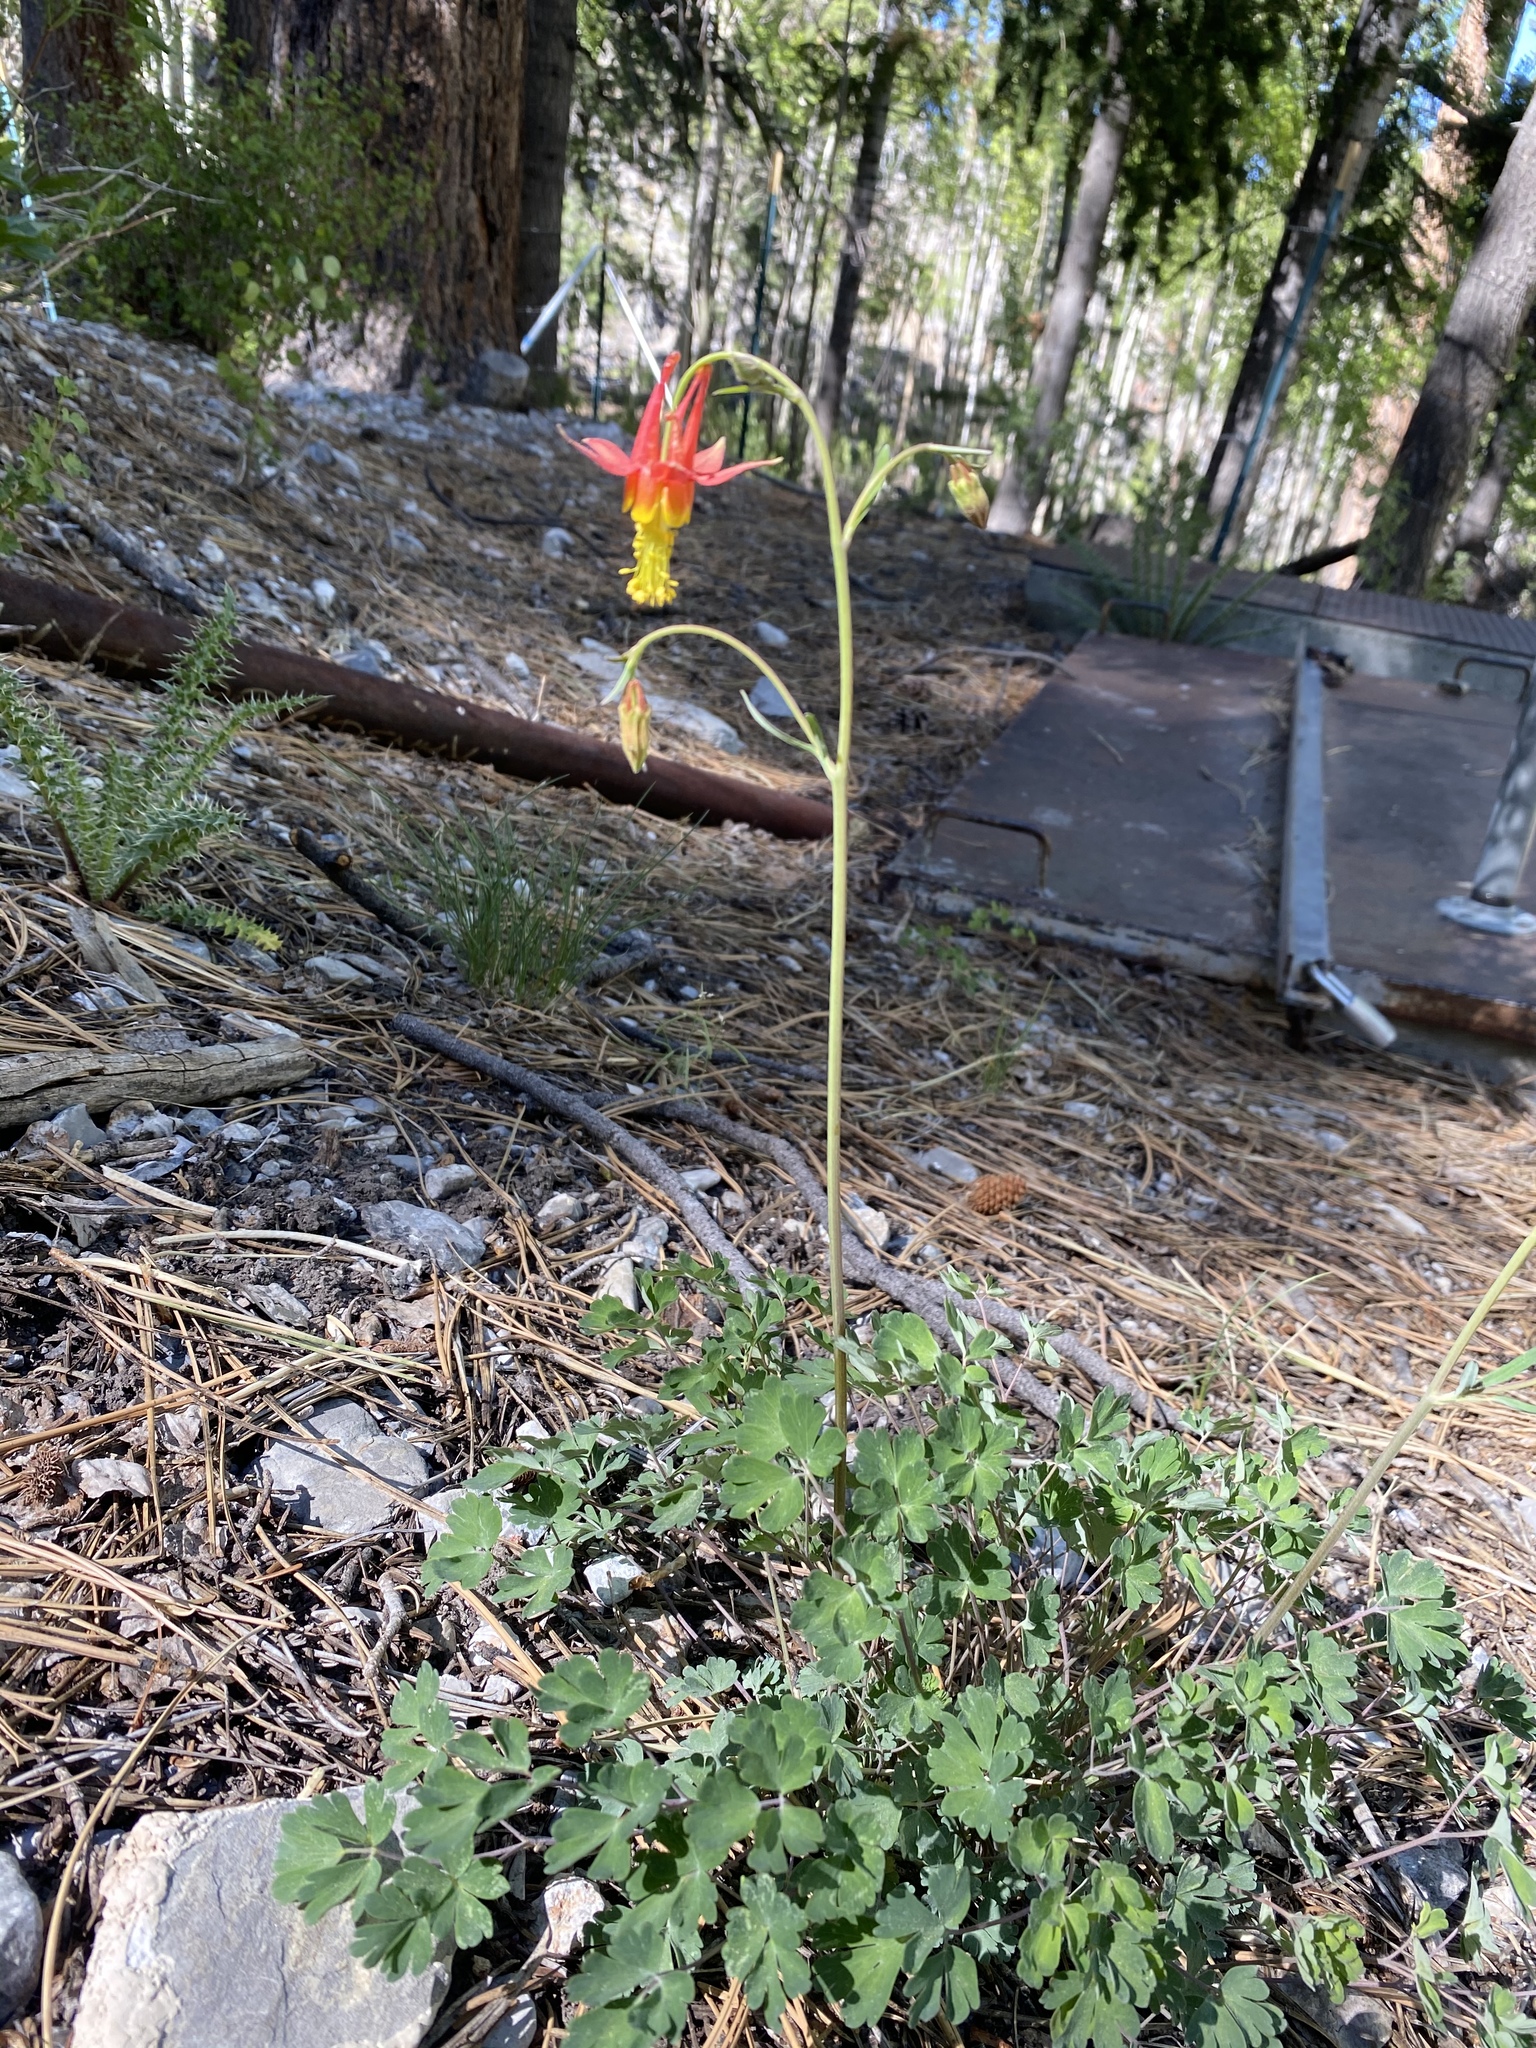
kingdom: Plantae
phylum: Tracheophyta
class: Magnoliopsida
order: Ranunculales
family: Ranunculaceae
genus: Aquilegia
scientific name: Aquilegia formosa
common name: Sitka columbine
